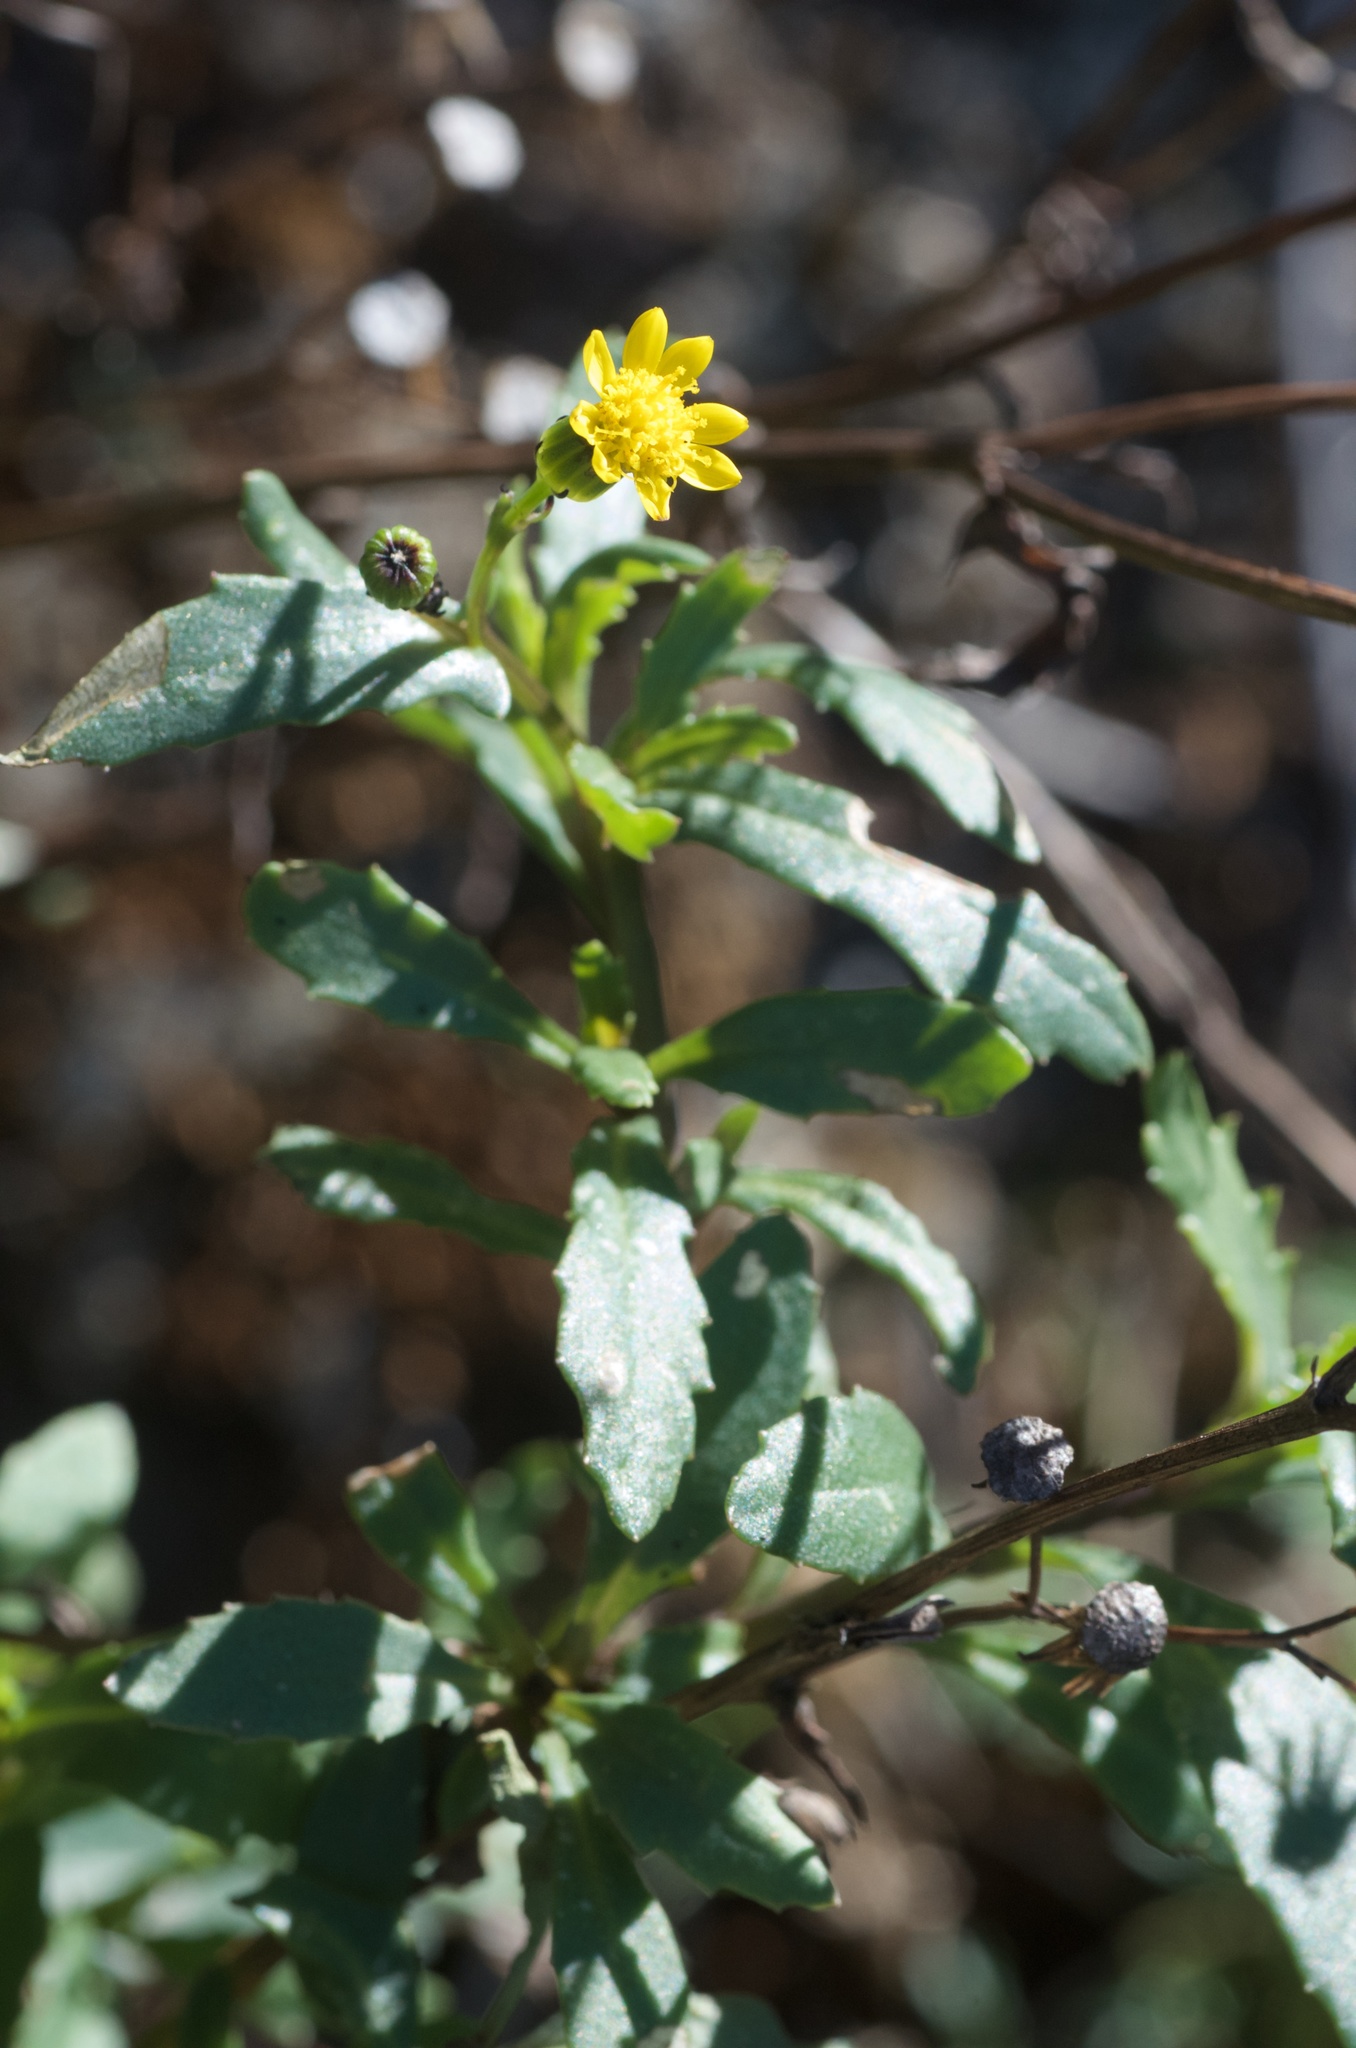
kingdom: Plantae
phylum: Tracheophyta
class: Magnoliopsida
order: Asterales
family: Asteraceae
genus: Senecio
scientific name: Senecio matatini
